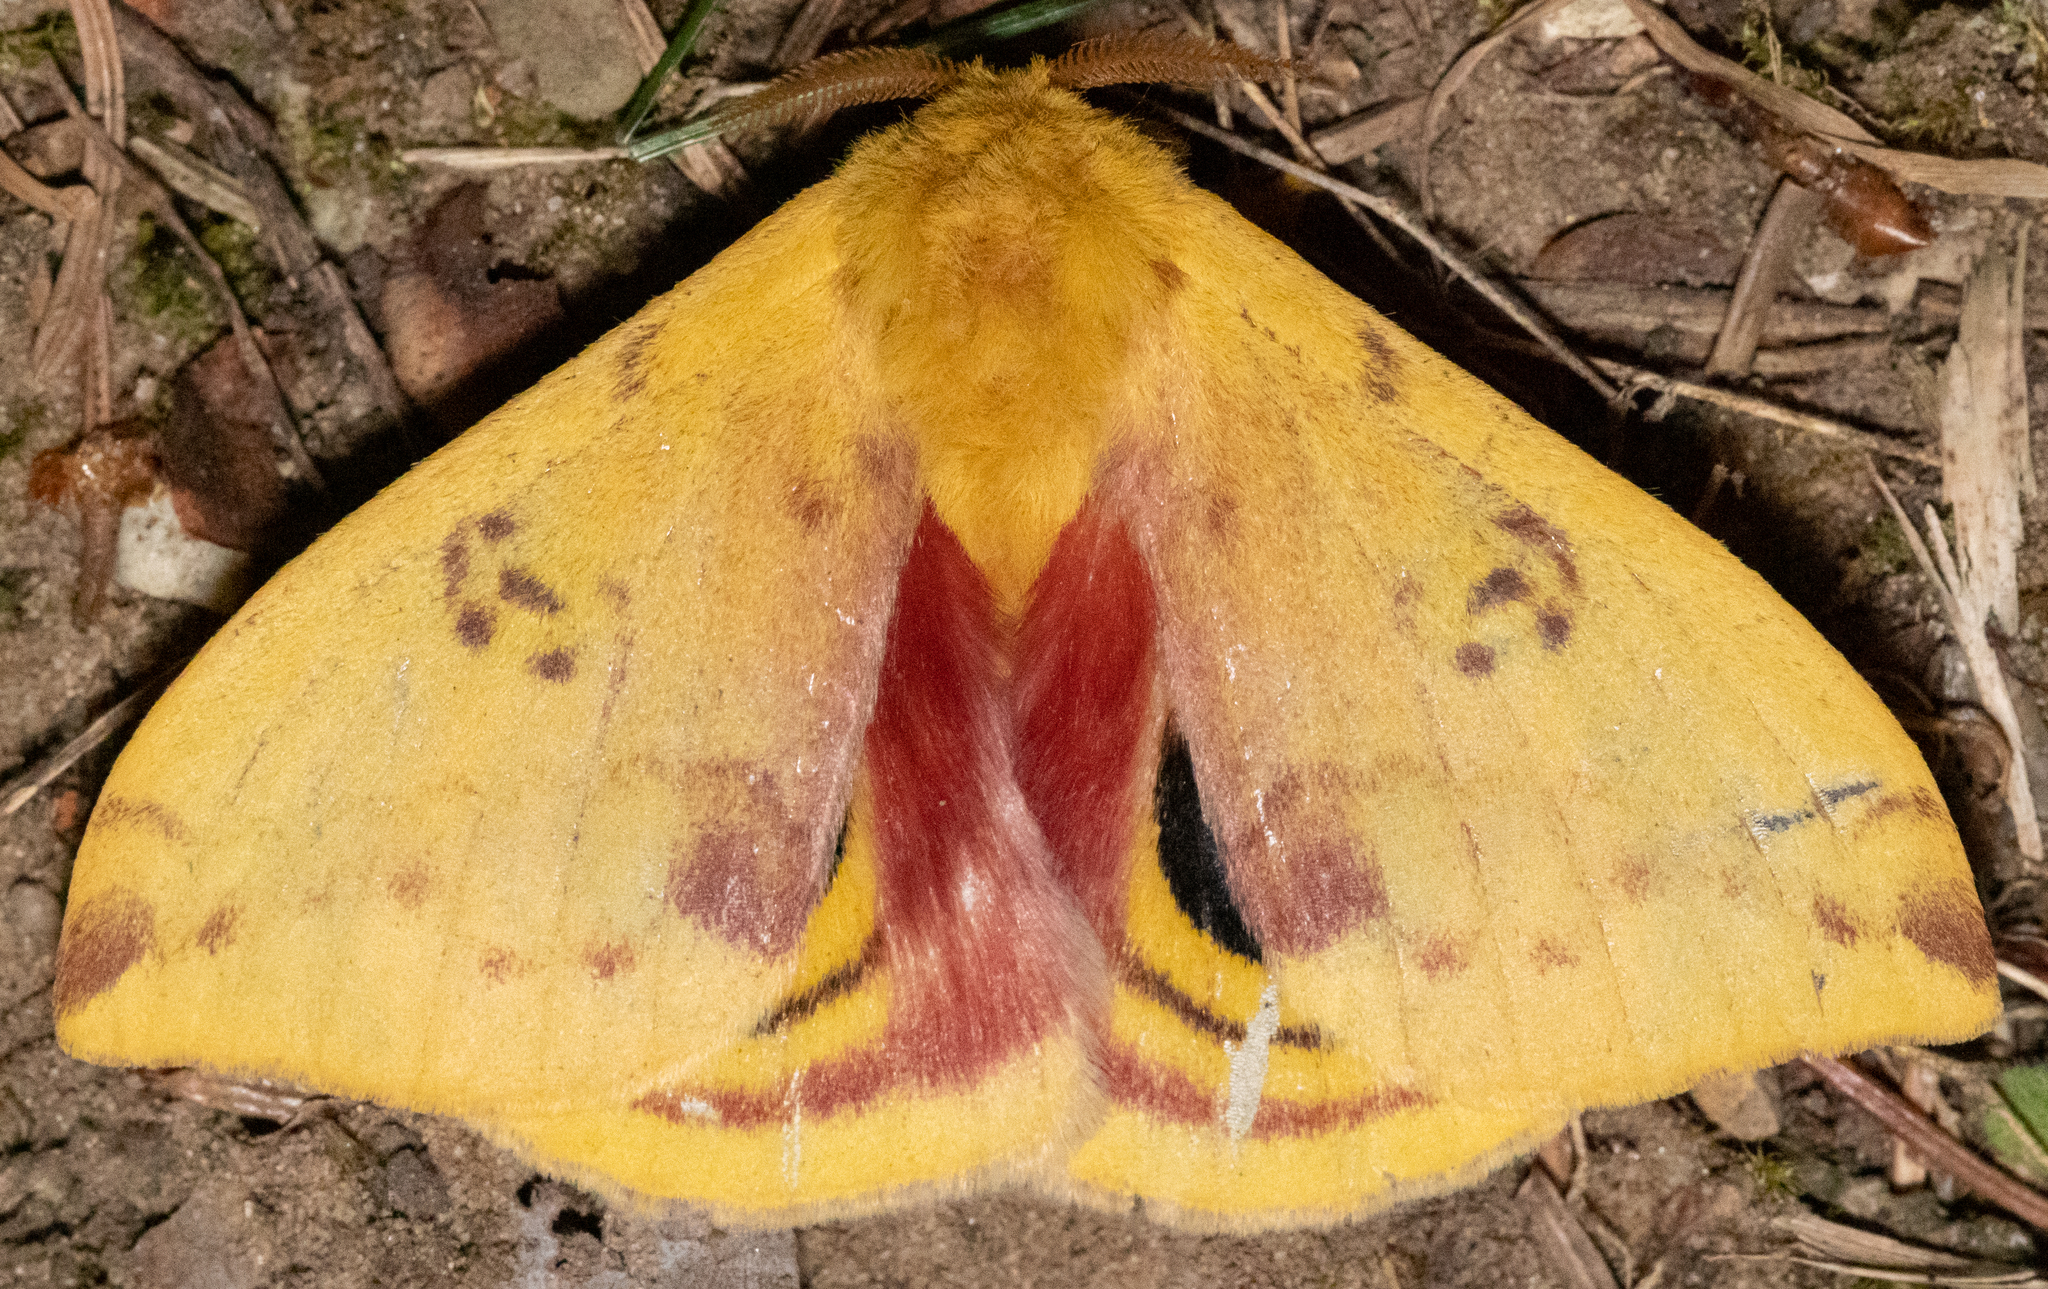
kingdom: Animalia
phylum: Arthropoda
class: Insecta
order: Lepidoptera
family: Saturniidae
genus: Automeris
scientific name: Automeris io
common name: Io moth
